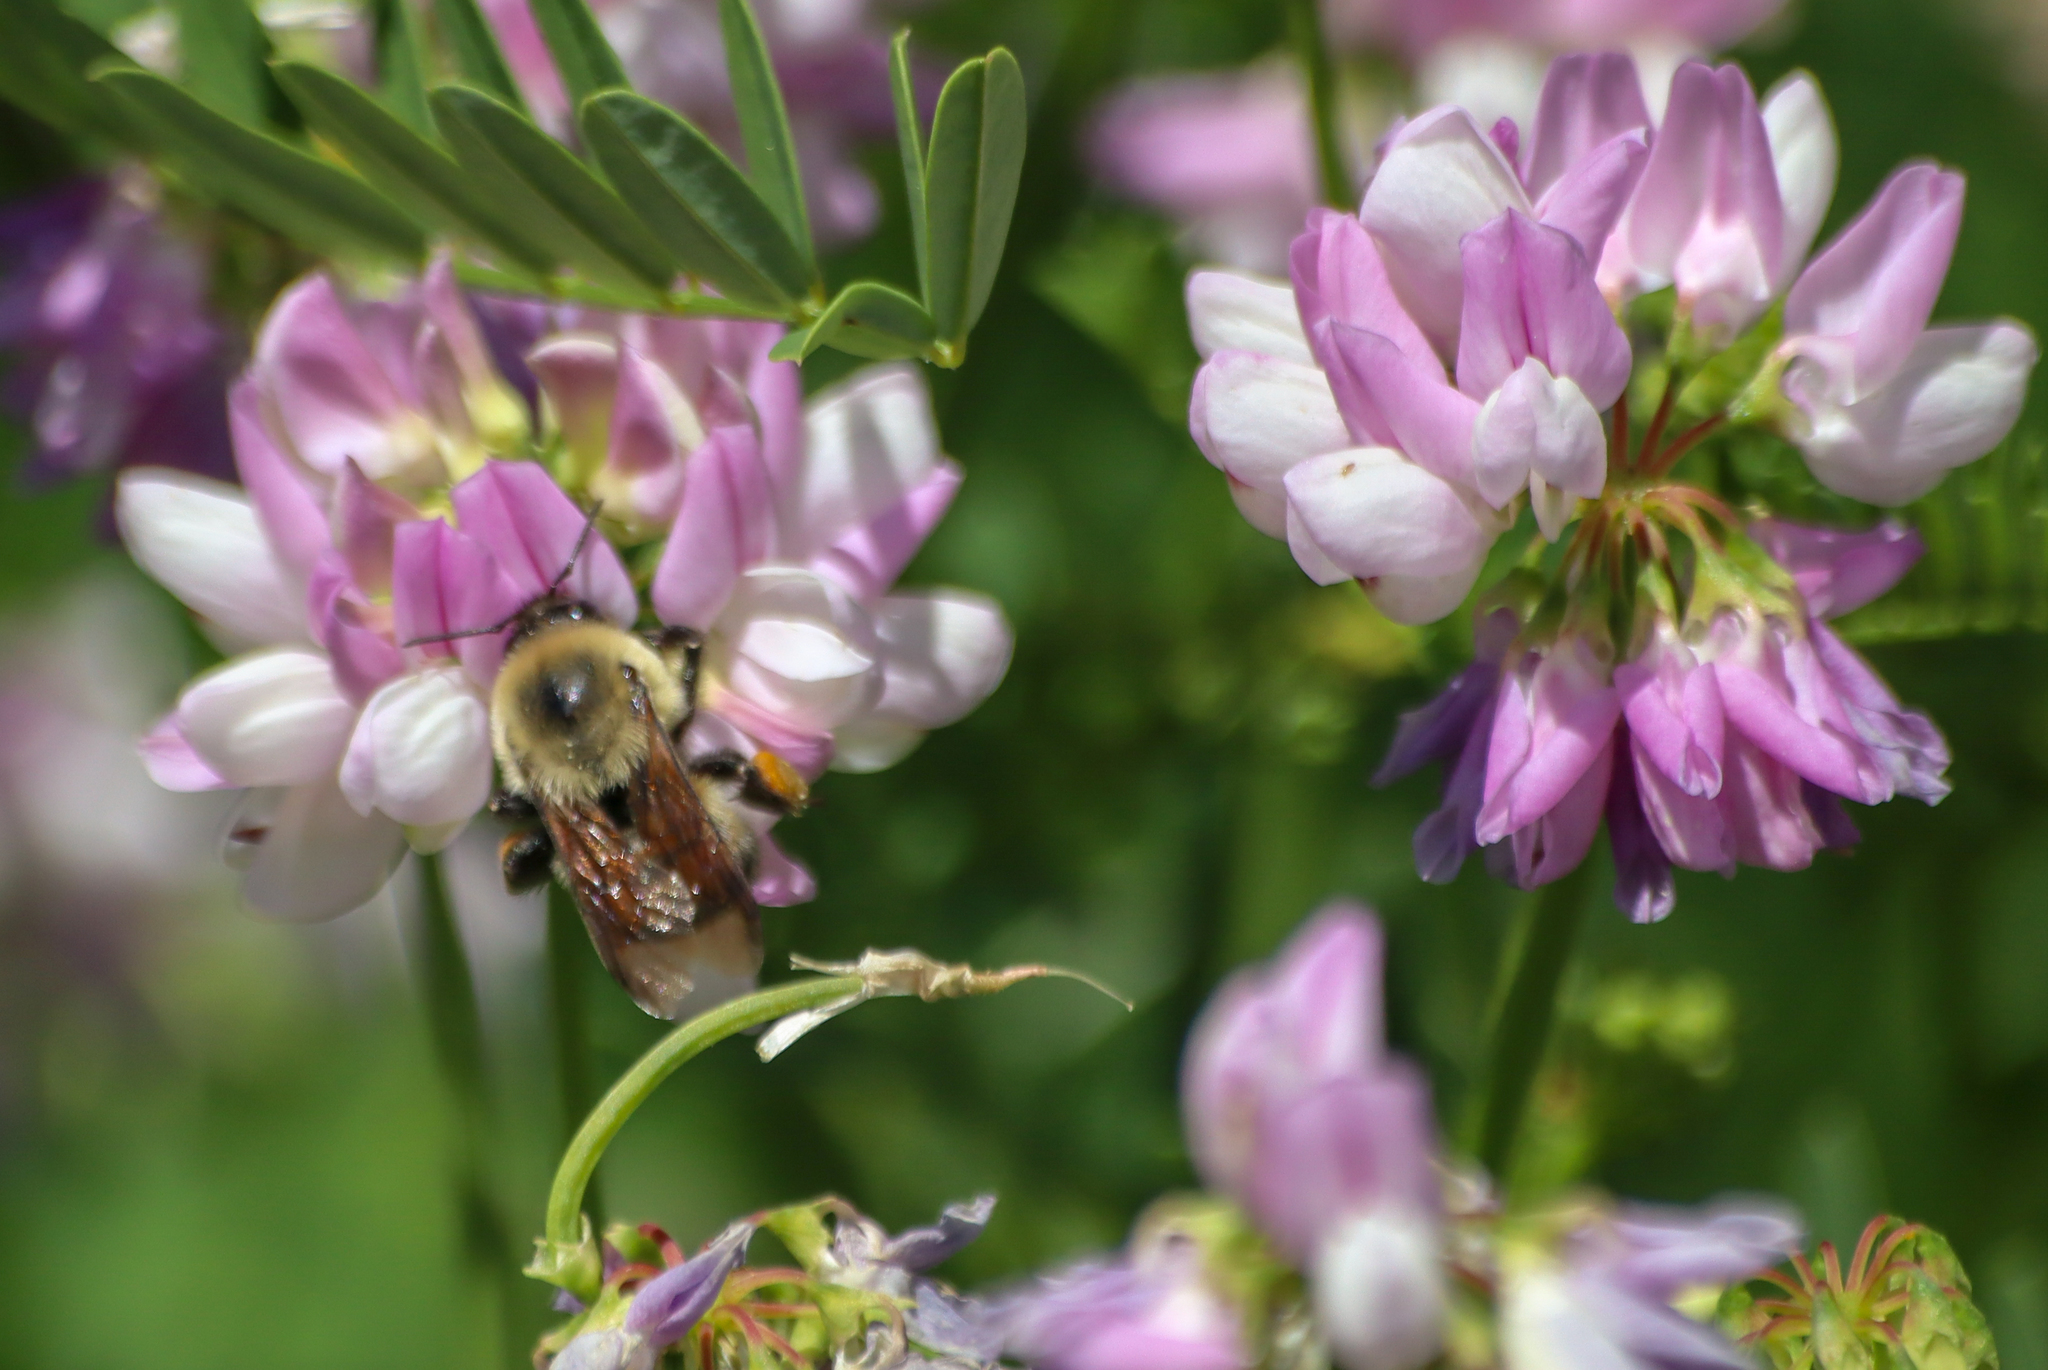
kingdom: Animalia
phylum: Arthropoda
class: Insecta
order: Hymenoptera
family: Apidae
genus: Bombus
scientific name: Bombus griseocollis
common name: Brown-belted bumble bee
